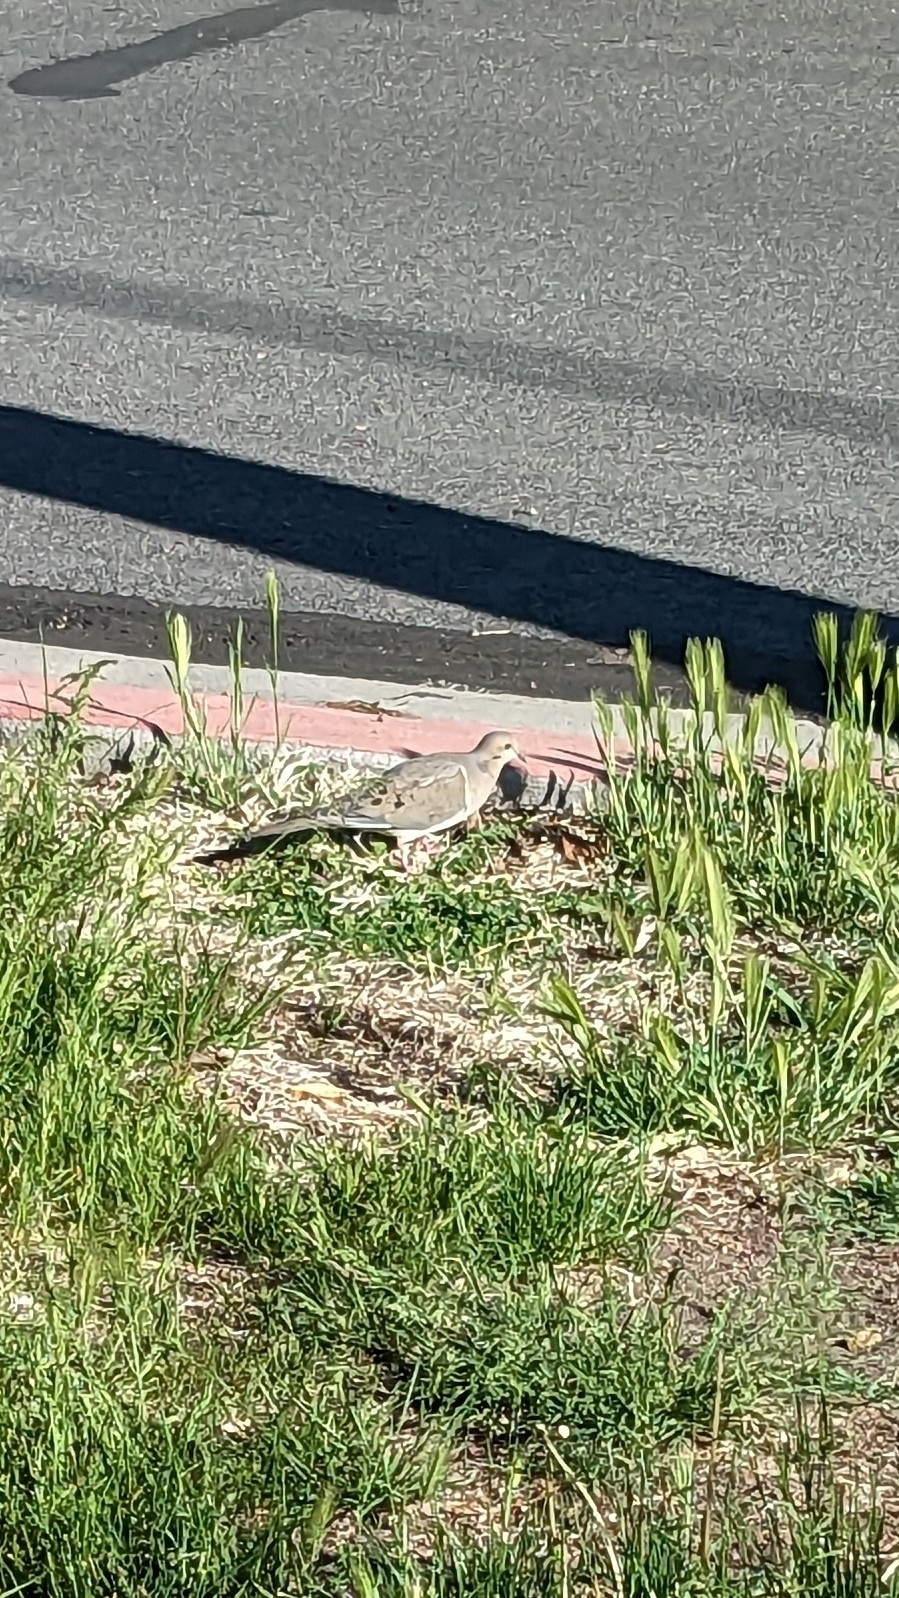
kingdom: Animalia
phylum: Chordata
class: Aves
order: Columbiformes
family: Columbidae
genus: Zenaida
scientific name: Zenaida macroura
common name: Mourning dove
